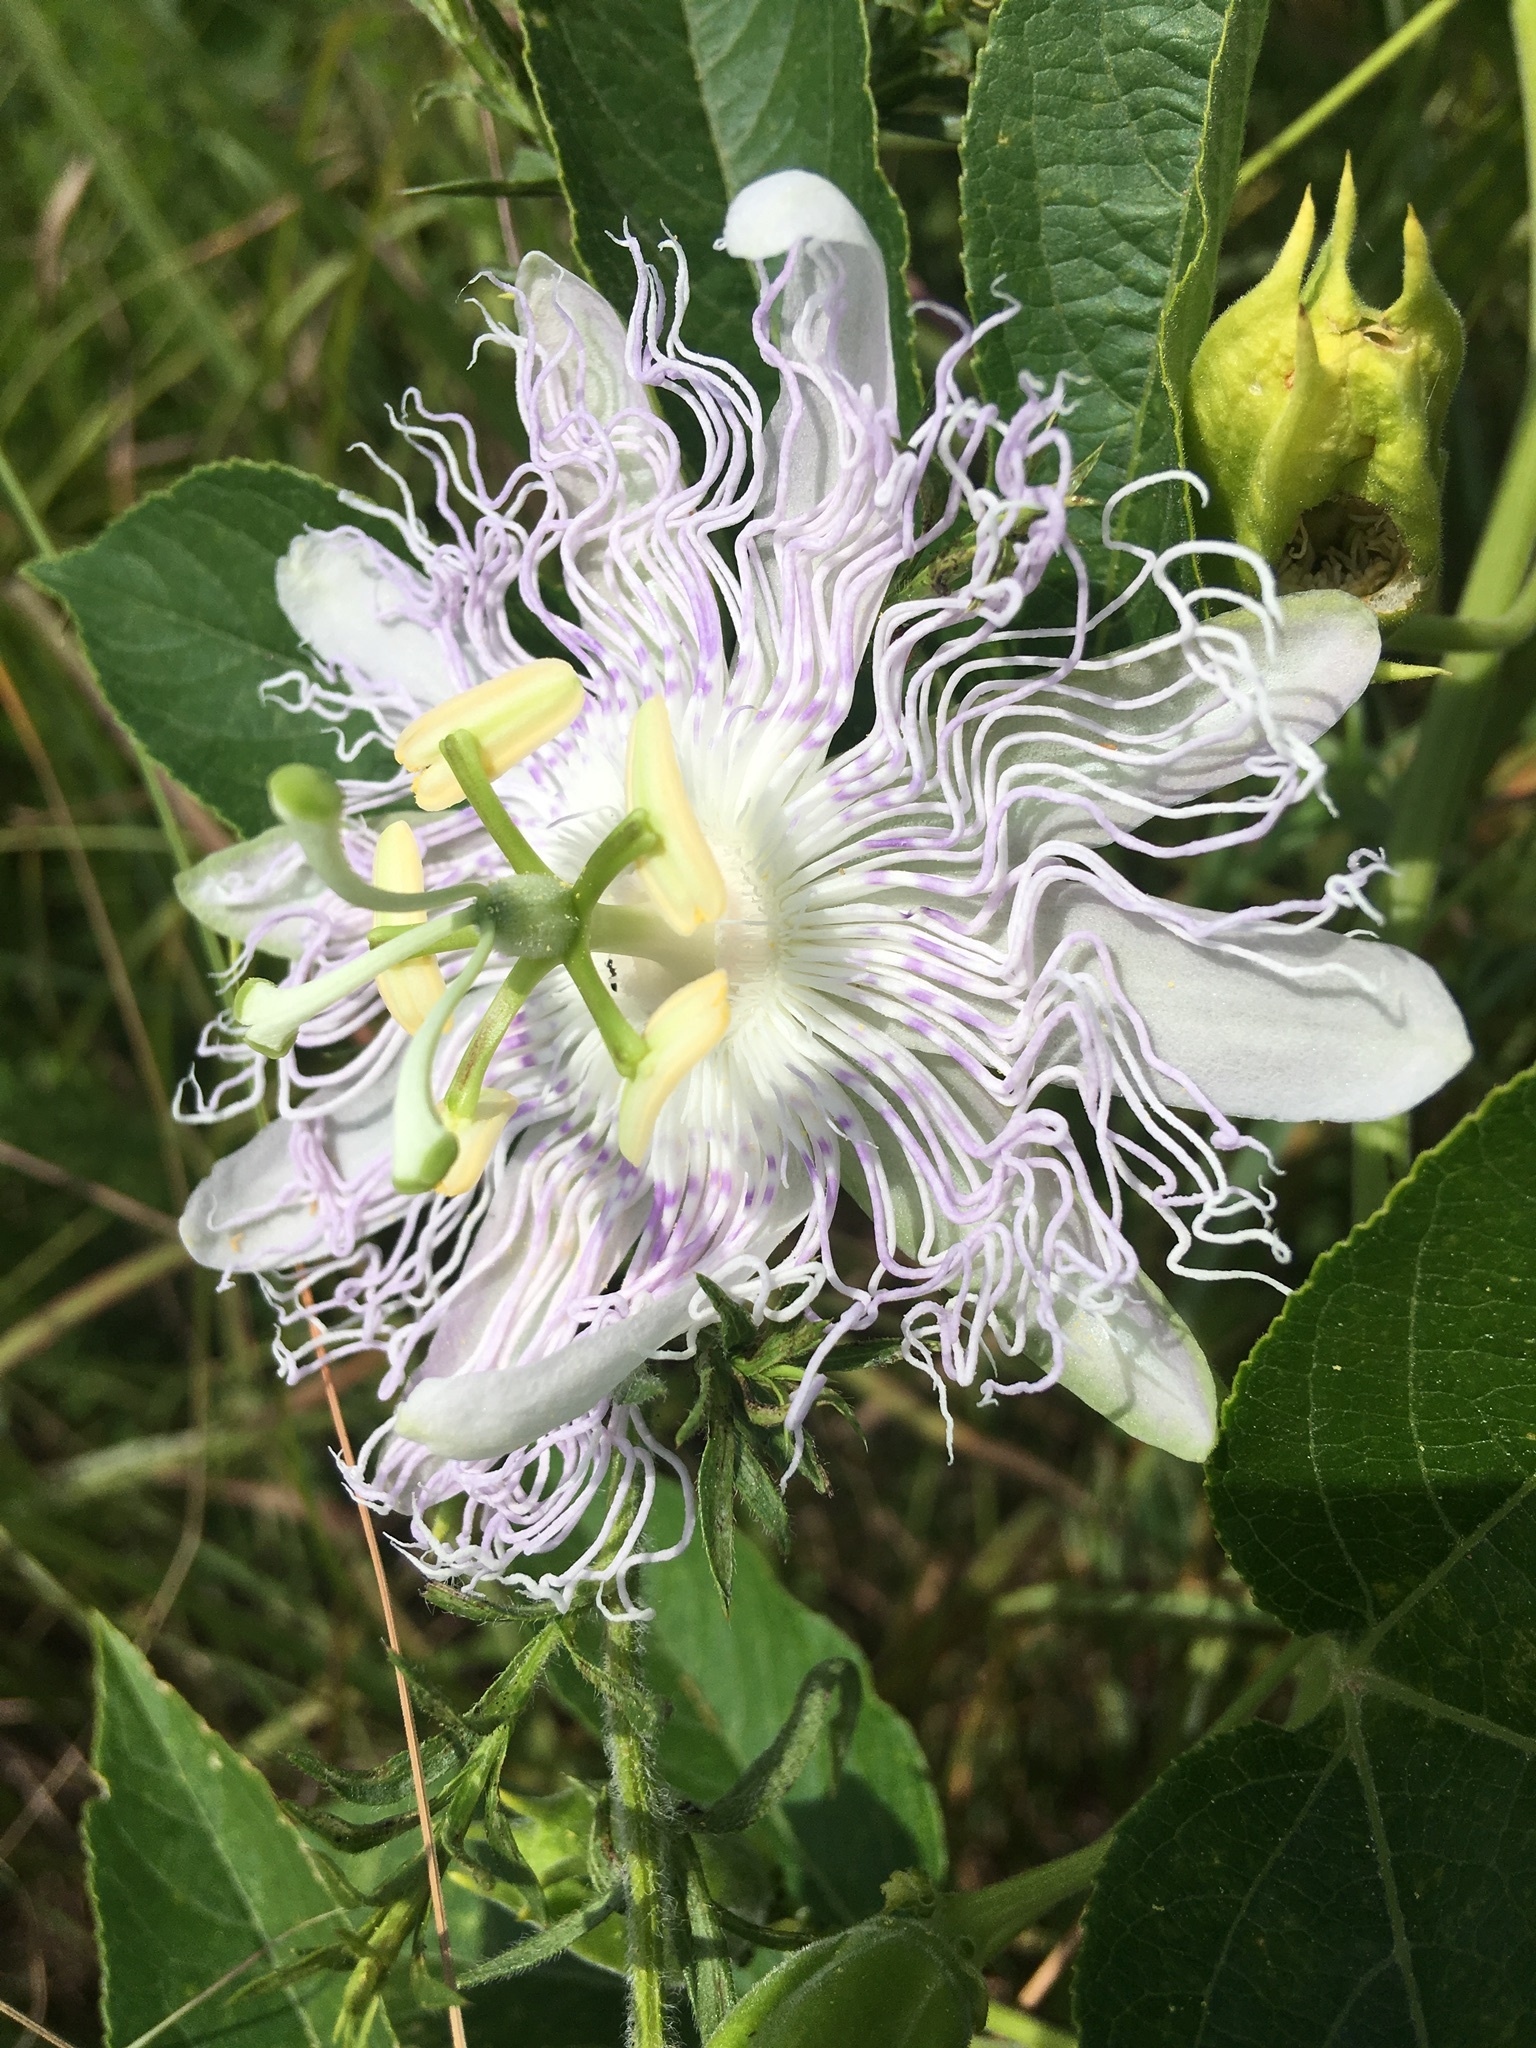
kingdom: Plantae
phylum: Tracheophyta
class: Magnoliopsida
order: Malpighiales
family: Passifloraceae
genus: Passiflora
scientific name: Passiflora incarnata
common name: Apricot-vine
